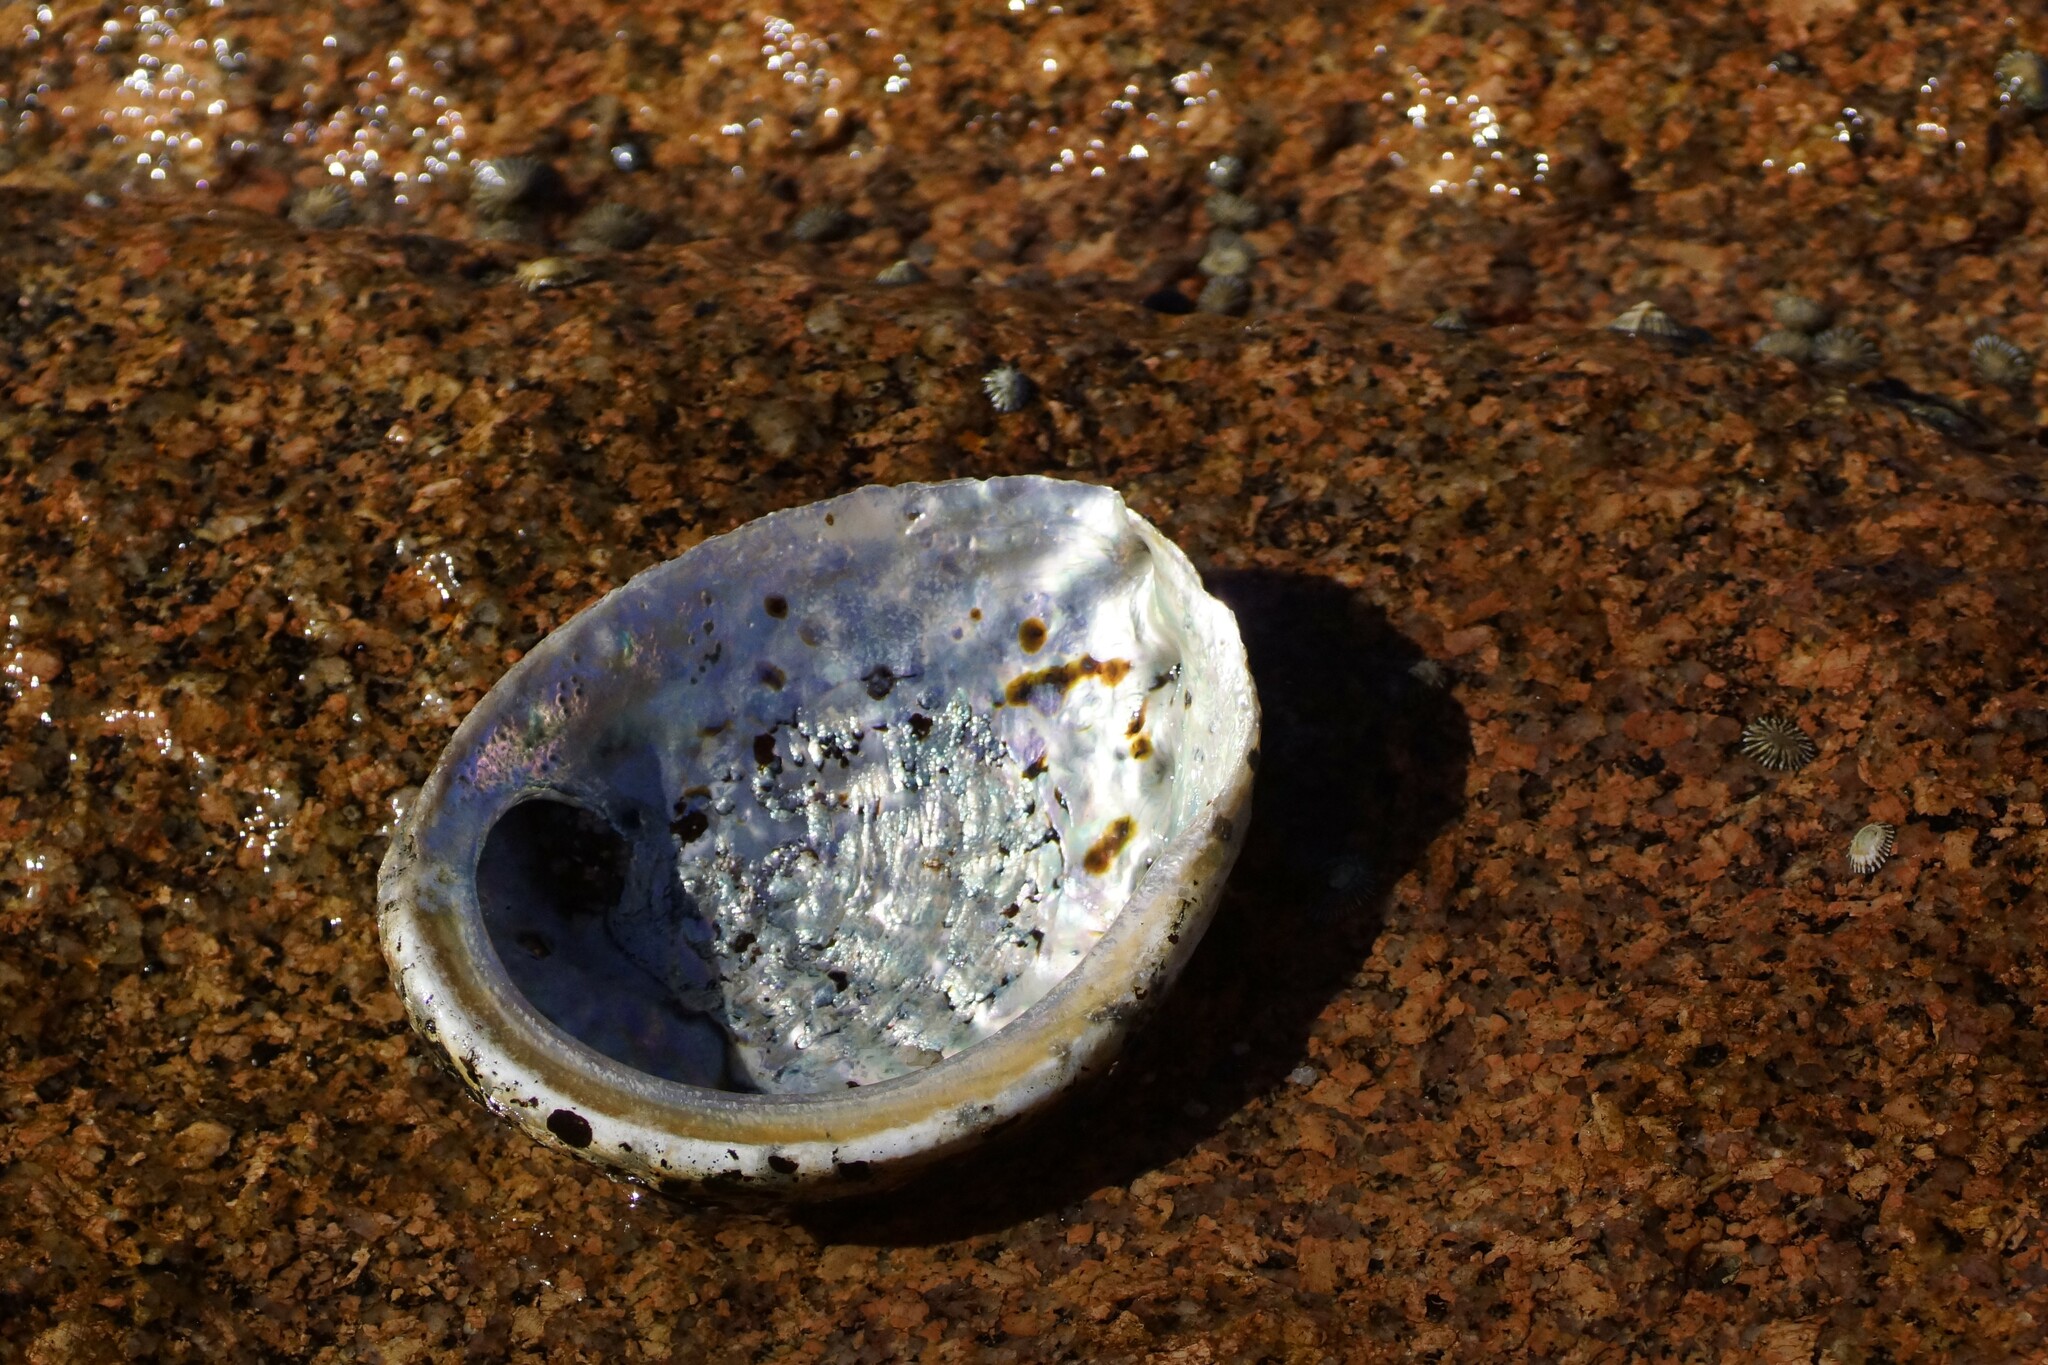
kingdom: Animalia
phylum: Mollusca
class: Gastropoda
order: Lepetellida
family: Haliotidae
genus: Haliotis
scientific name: Haliotis rubra
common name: Blacklip abalone
